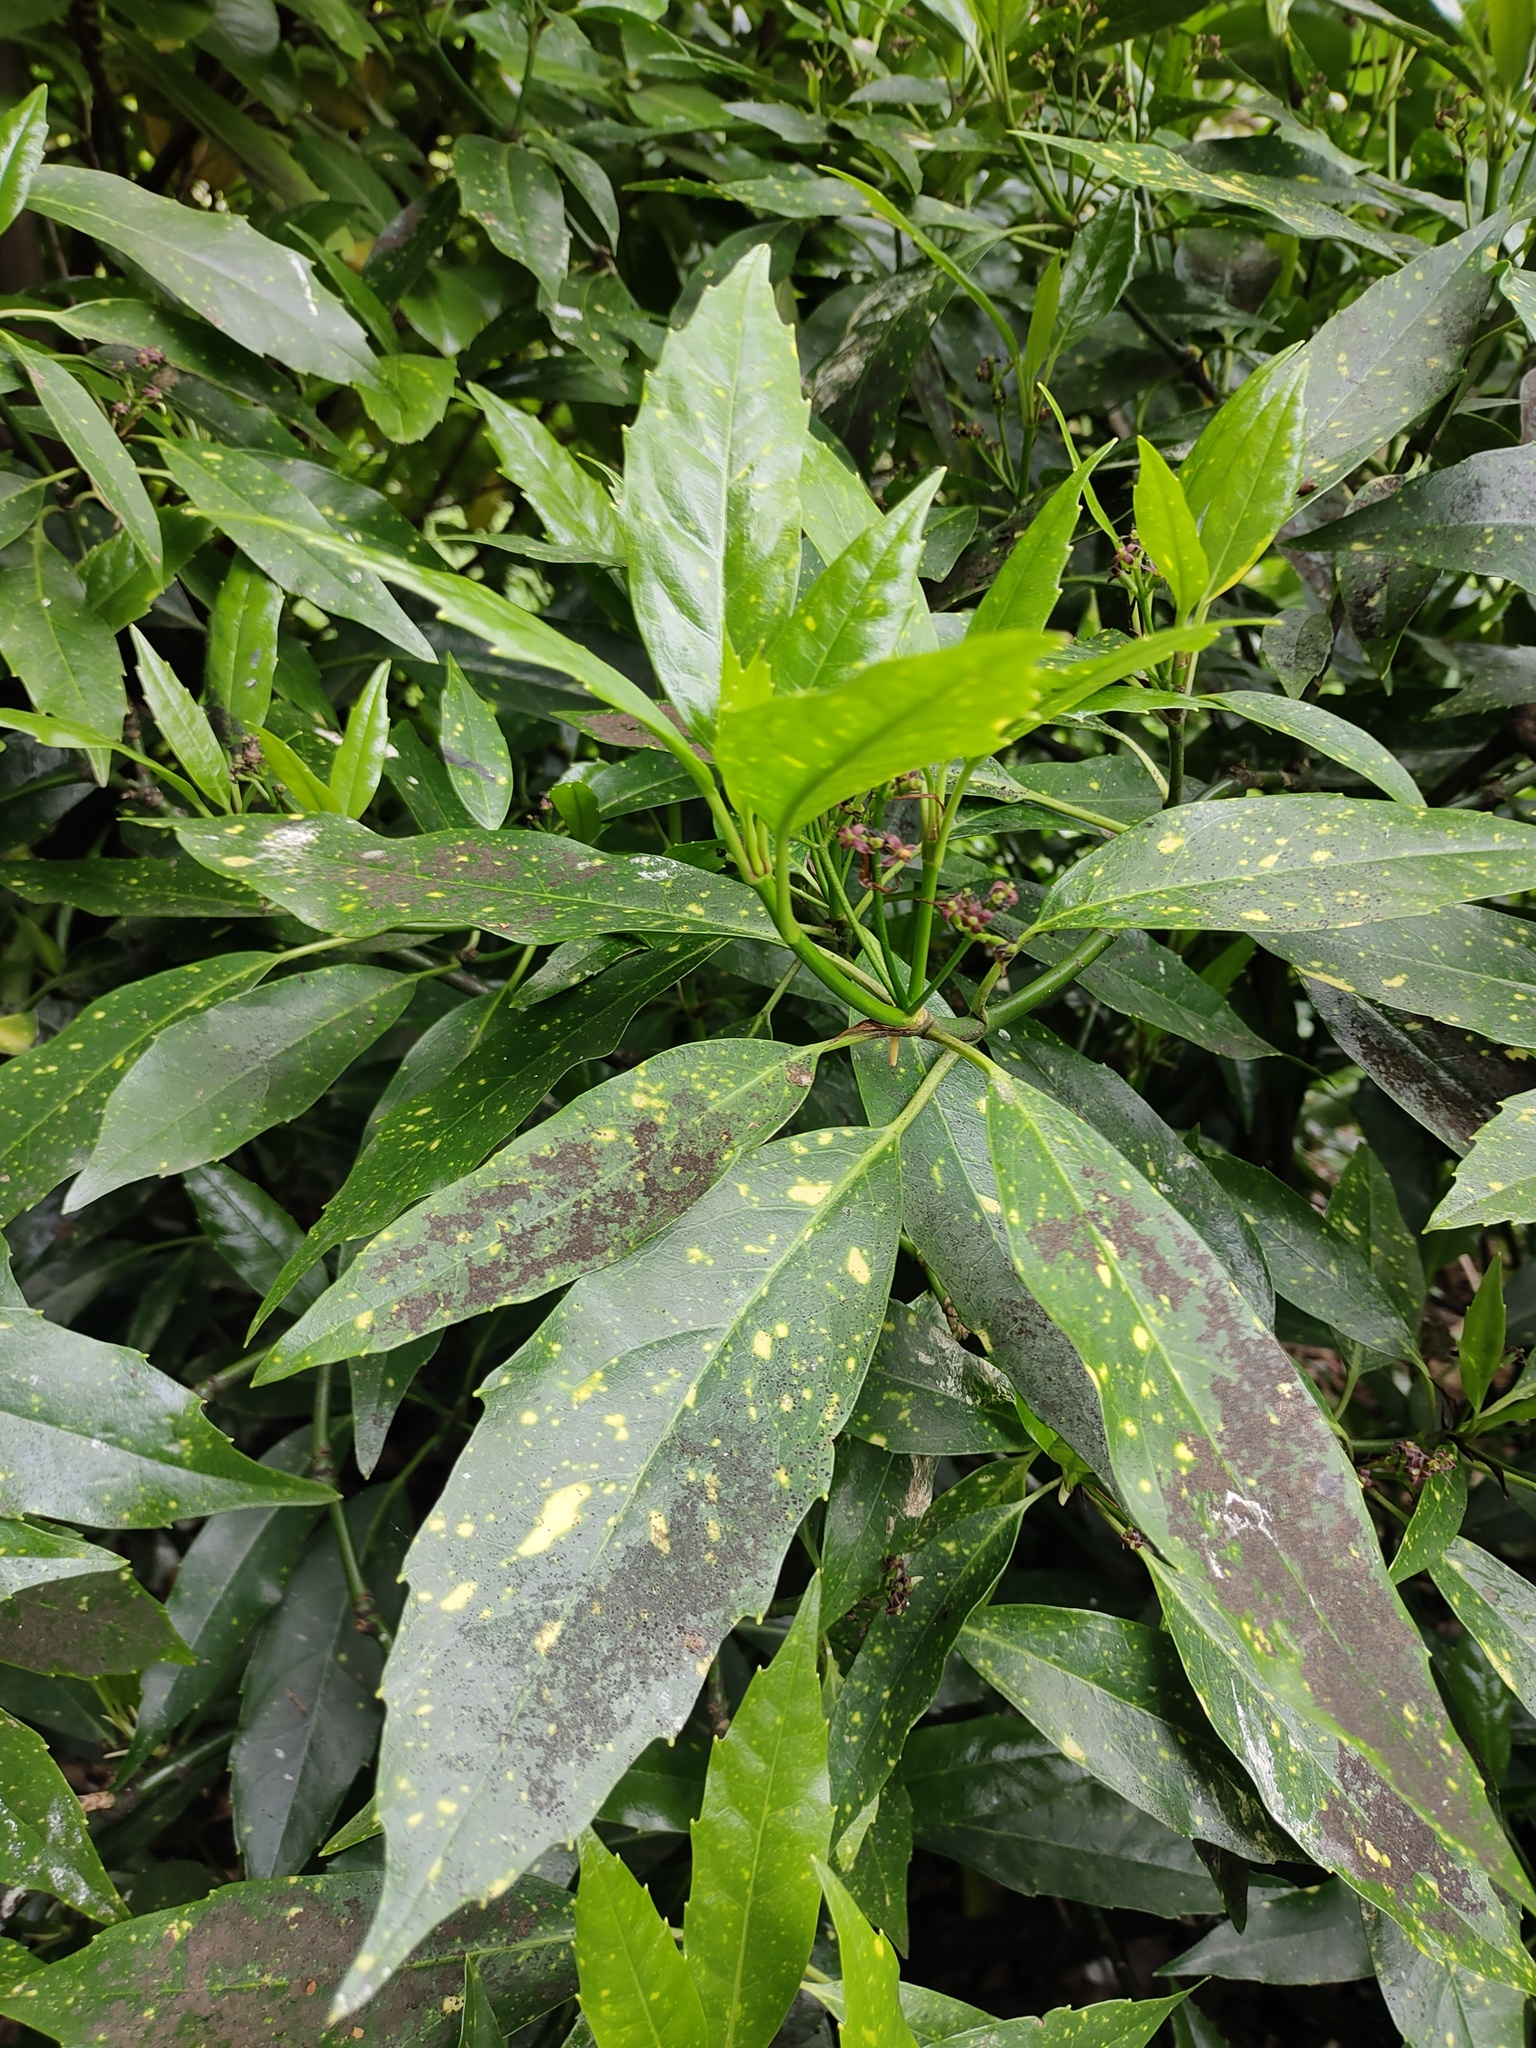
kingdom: Plantae
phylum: Tracheophyta
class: Magnoliopsida
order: Garryales
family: Garryaceae
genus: Aucuba
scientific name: Aucuba japonica
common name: Spotted-laurel
